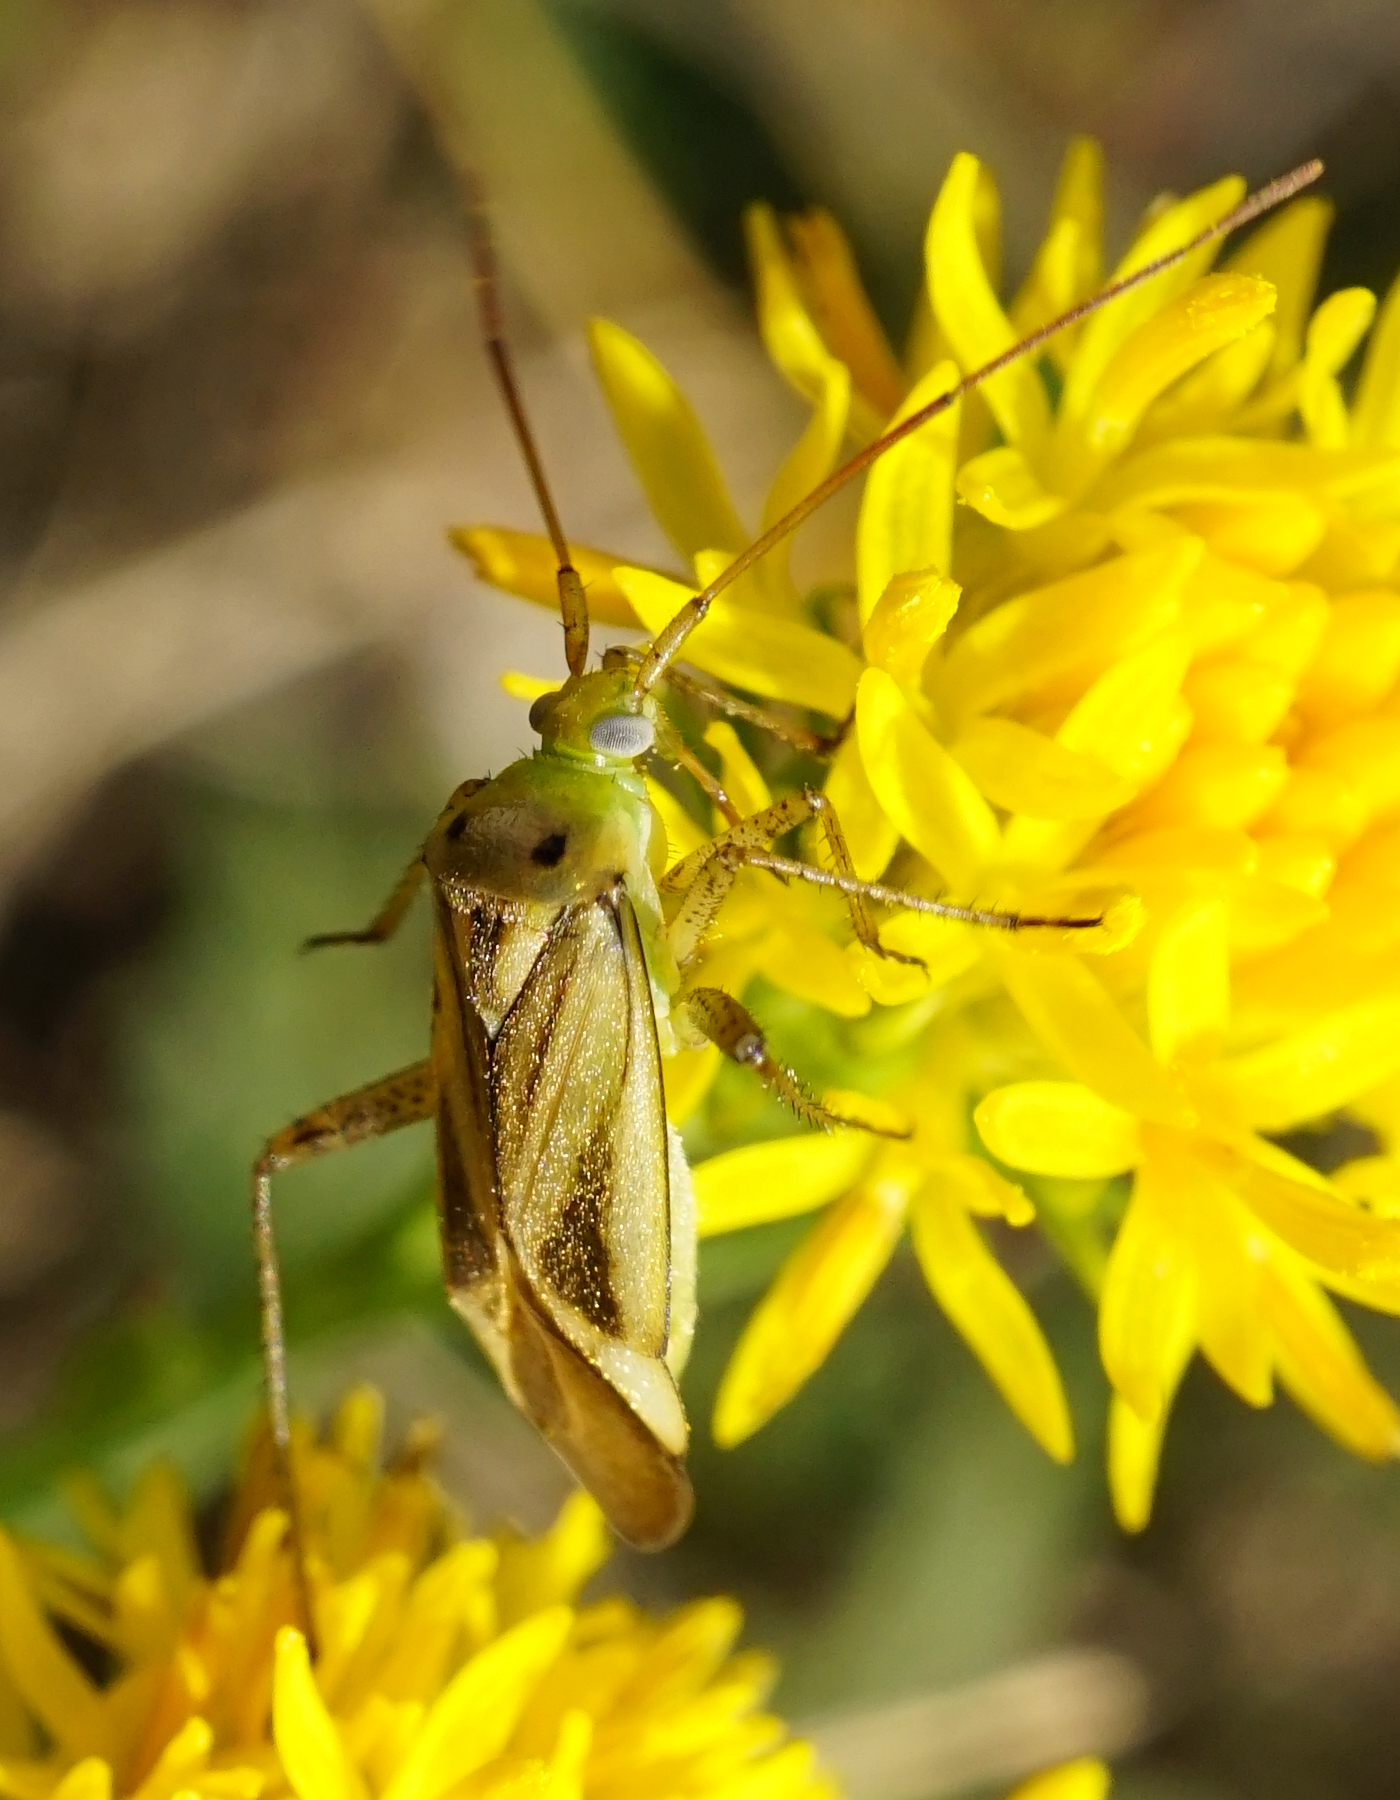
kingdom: Animalia
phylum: Arthropoda
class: Insecta
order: Hemiptera
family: Miridae
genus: Adelphocoris
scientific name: Adelphocoris lineolatus
